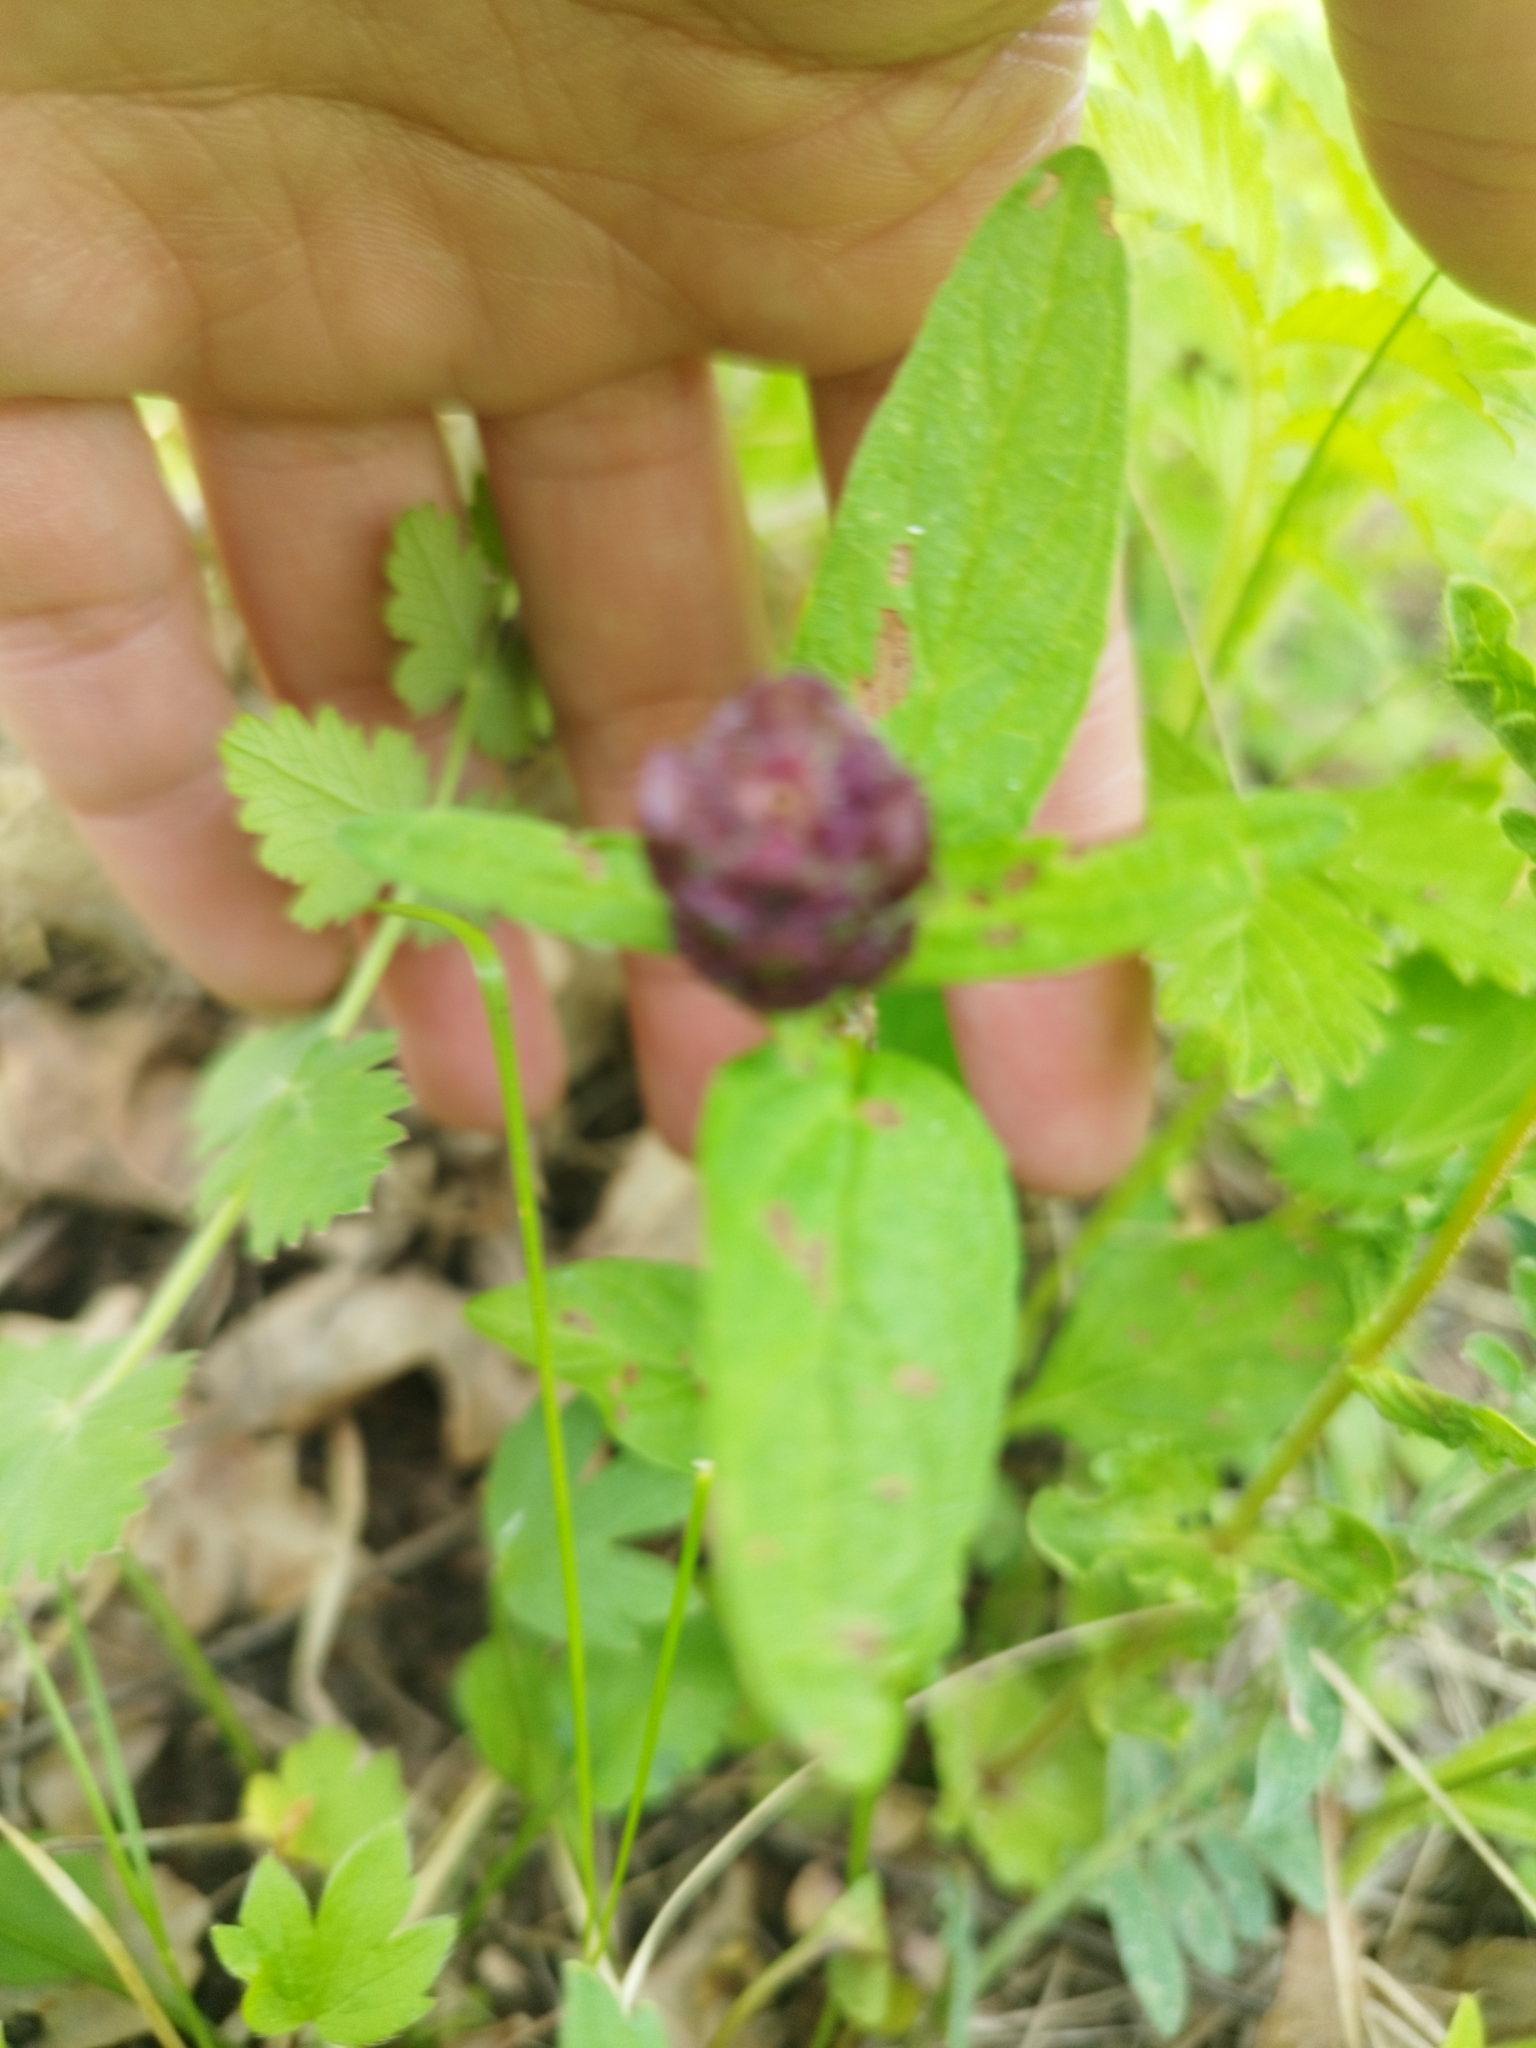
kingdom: Plantae
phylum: Tracheophyta
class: Magnoliopsida
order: Lamiales
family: Lamiaceae
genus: Prunella
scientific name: Prunella vulgaris
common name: Heal-all
